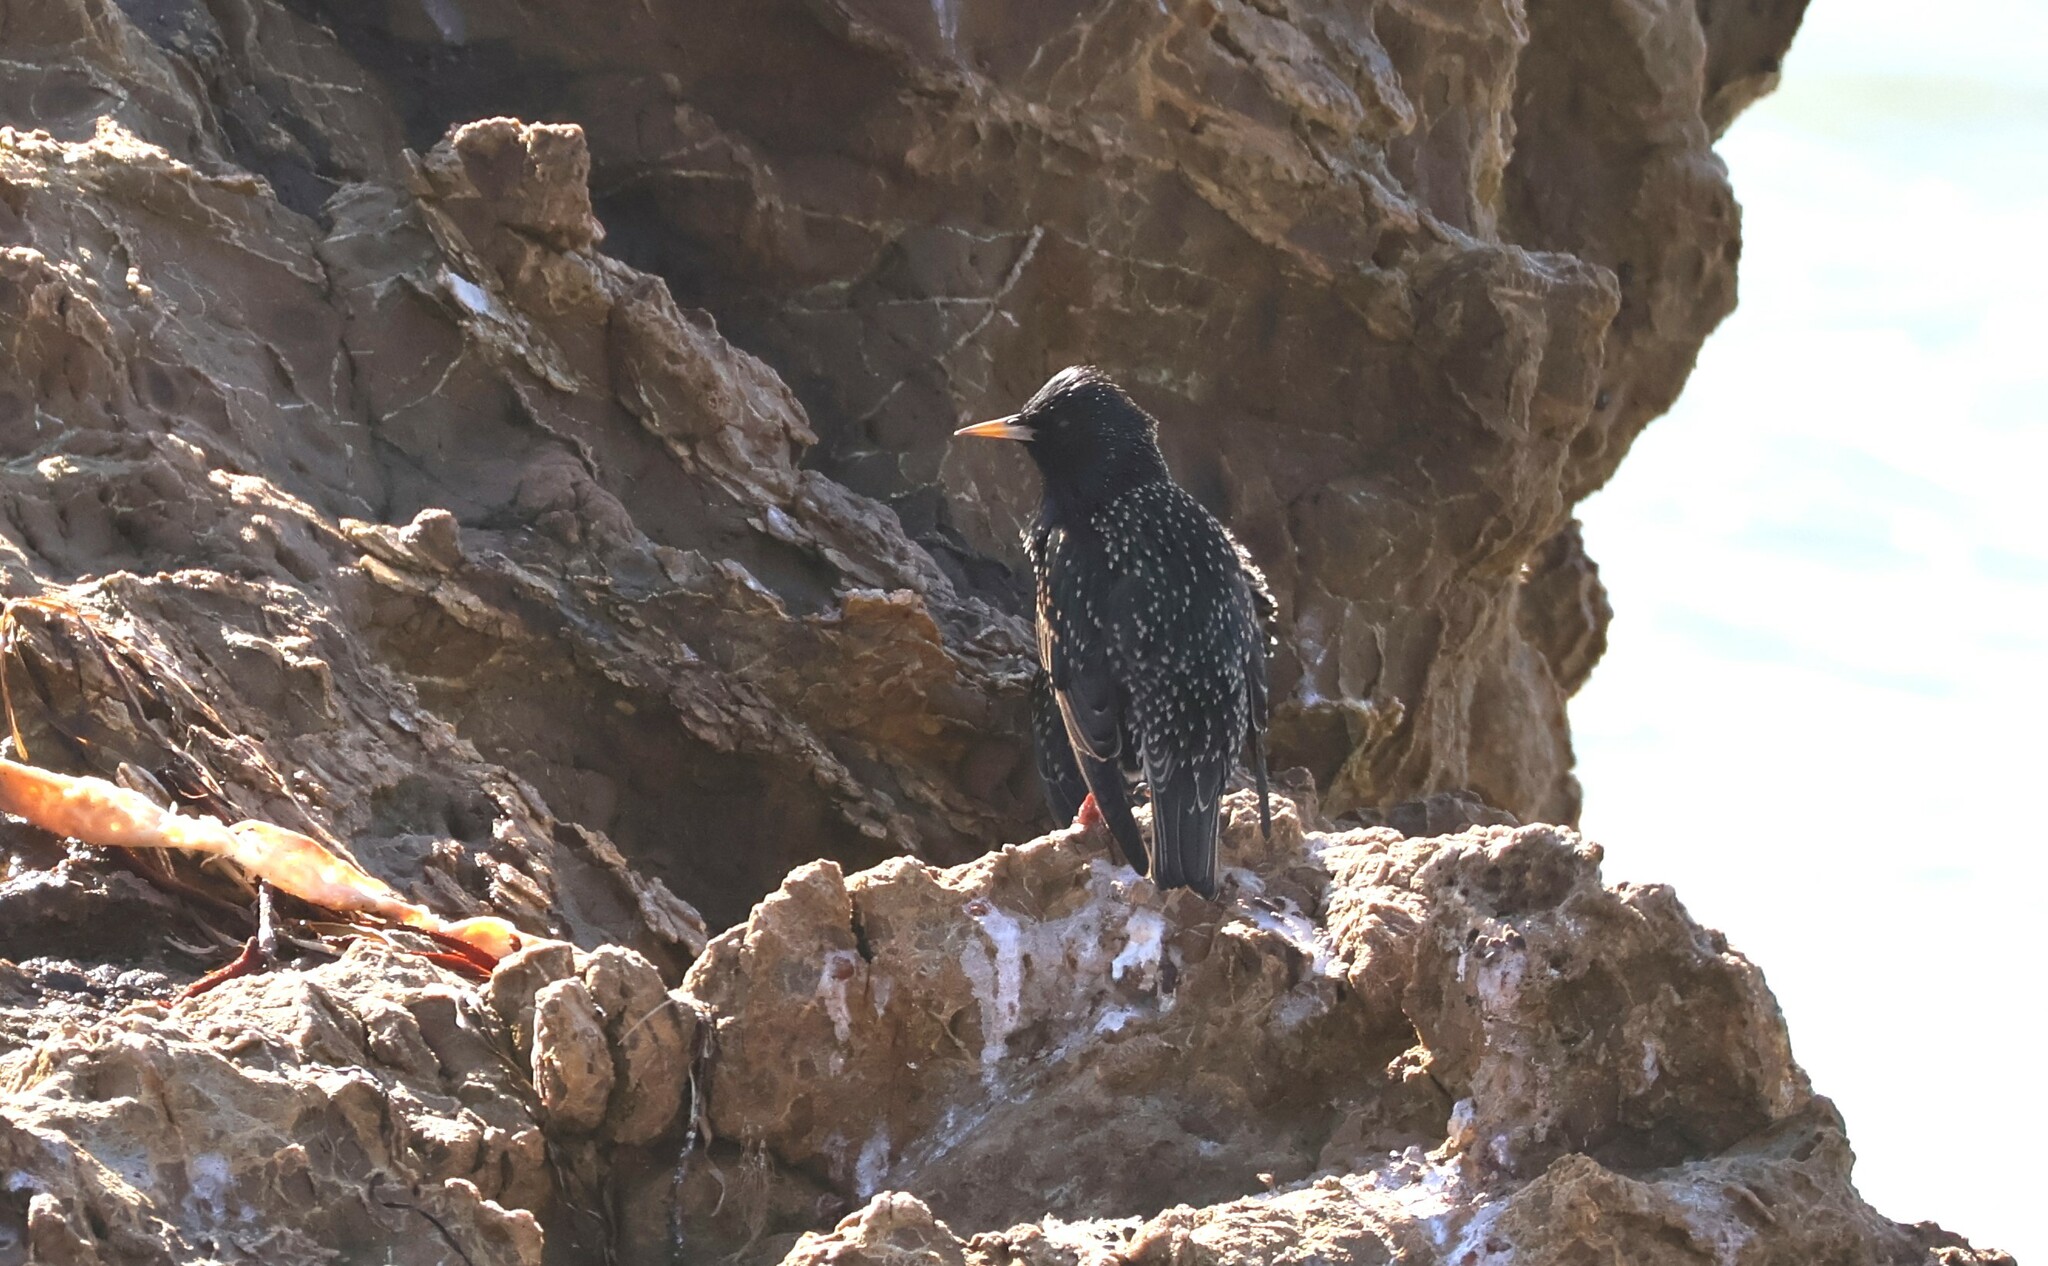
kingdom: Animalia
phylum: Chordata
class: Aves
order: Passeriformes
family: Sturnidae
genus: Sturnus
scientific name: Sturnus vulgaris
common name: Common starling
